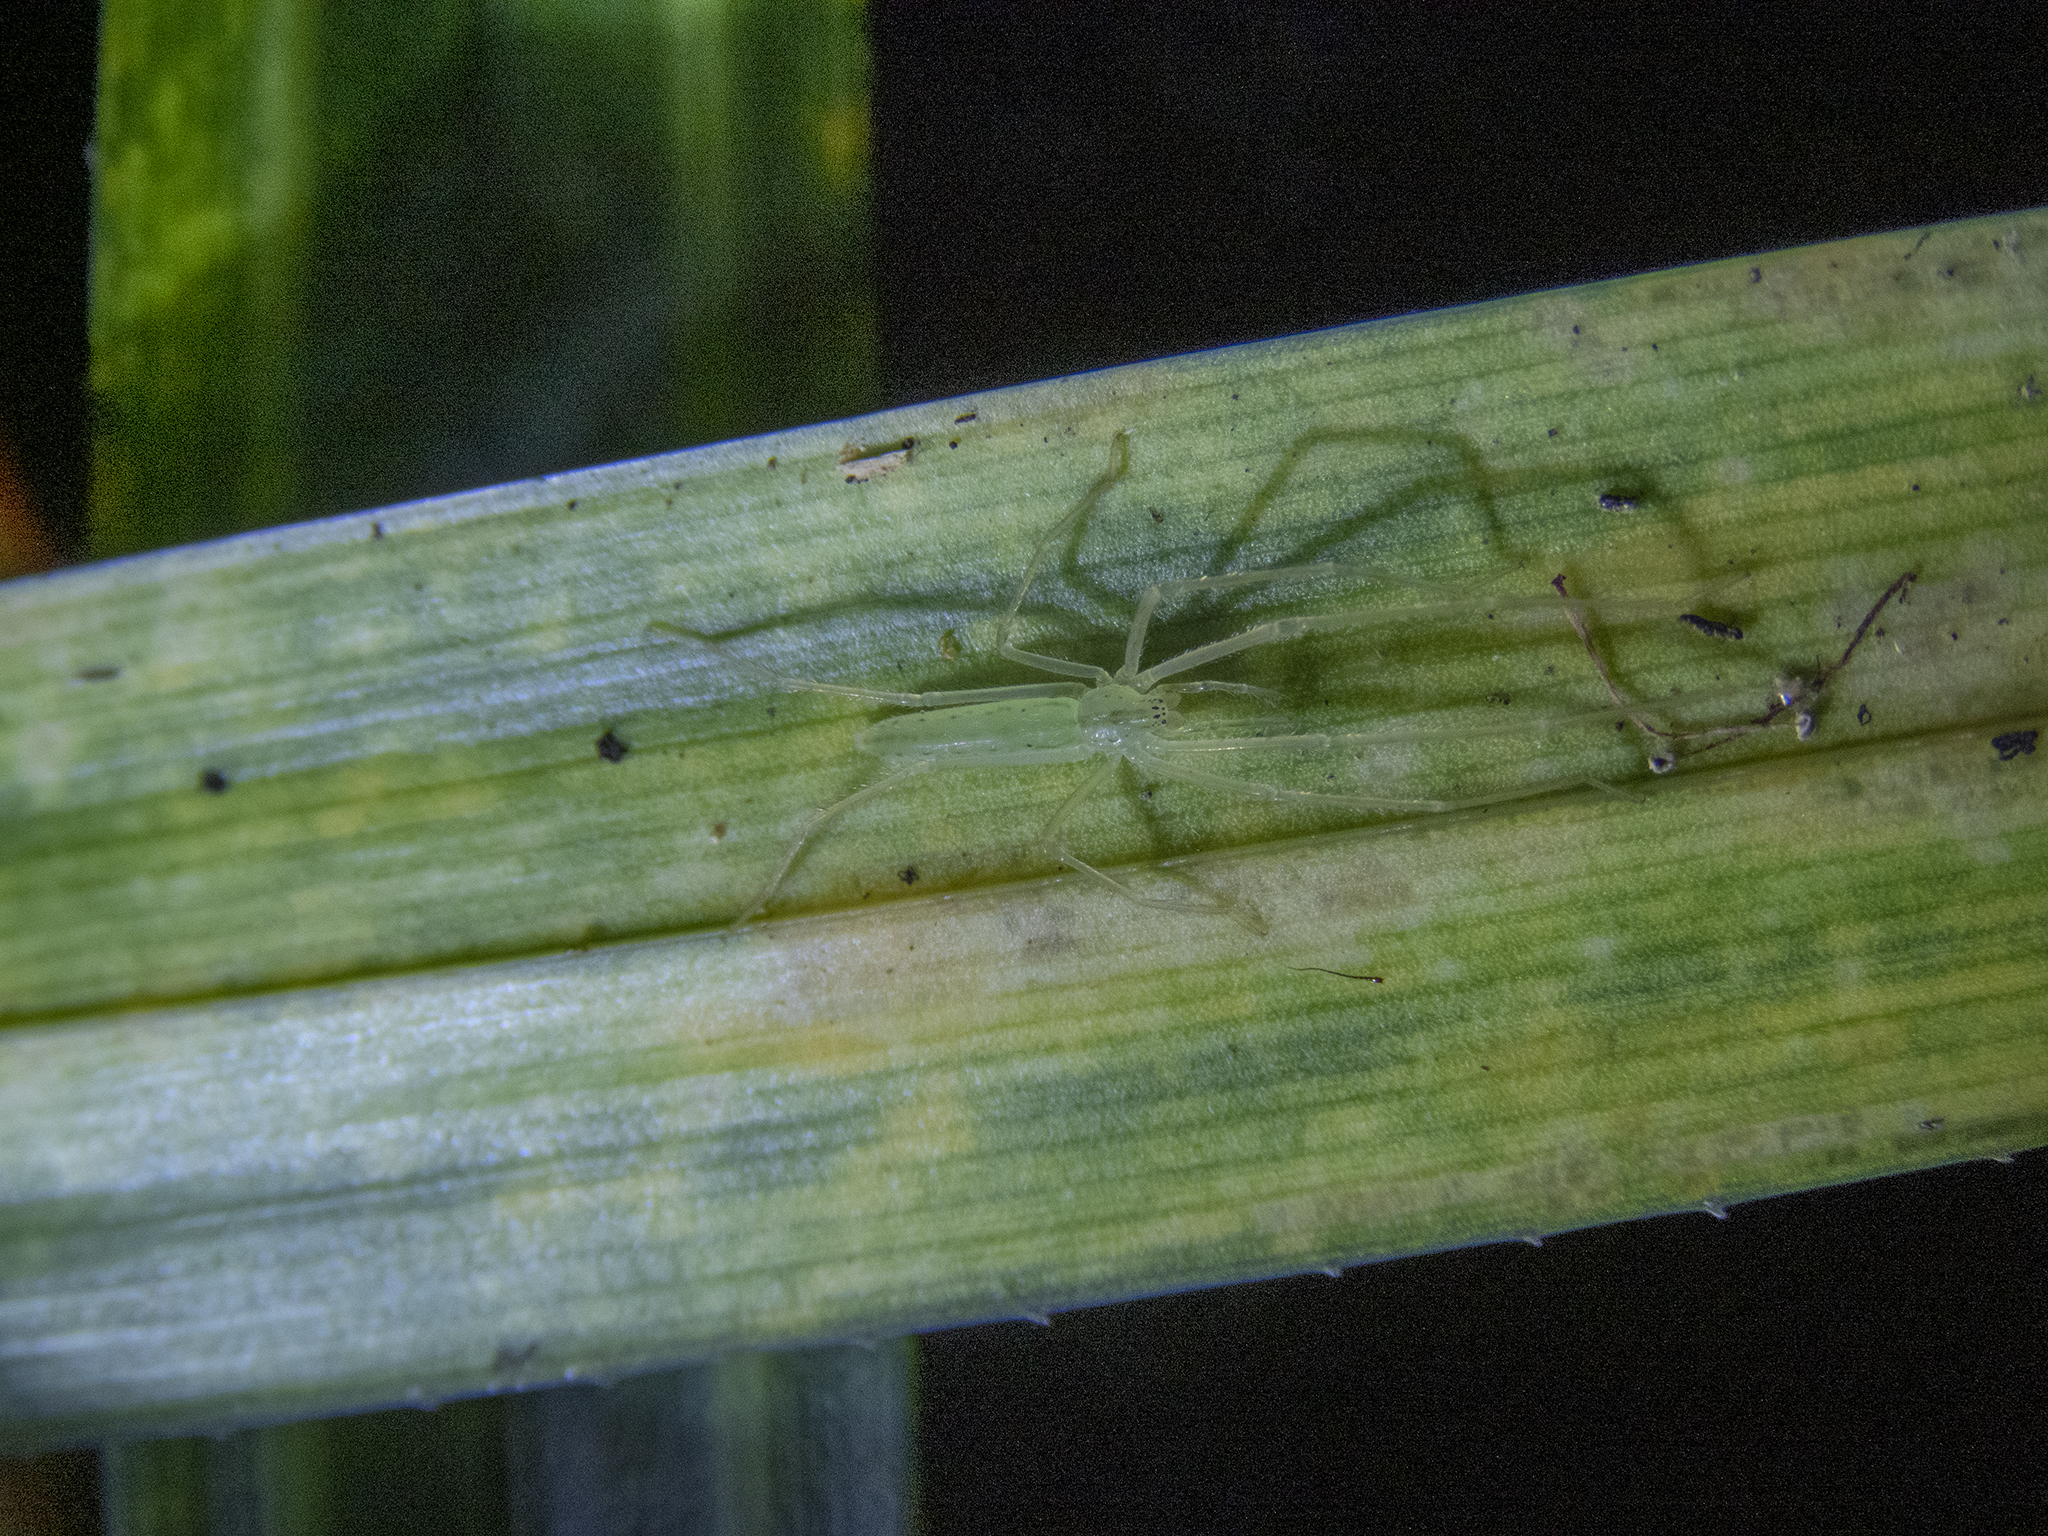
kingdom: Animalia
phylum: Arthropoda
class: Arachnida
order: Araneae
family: Desidae
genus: Ischalea
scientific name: Ischalea spinipes
